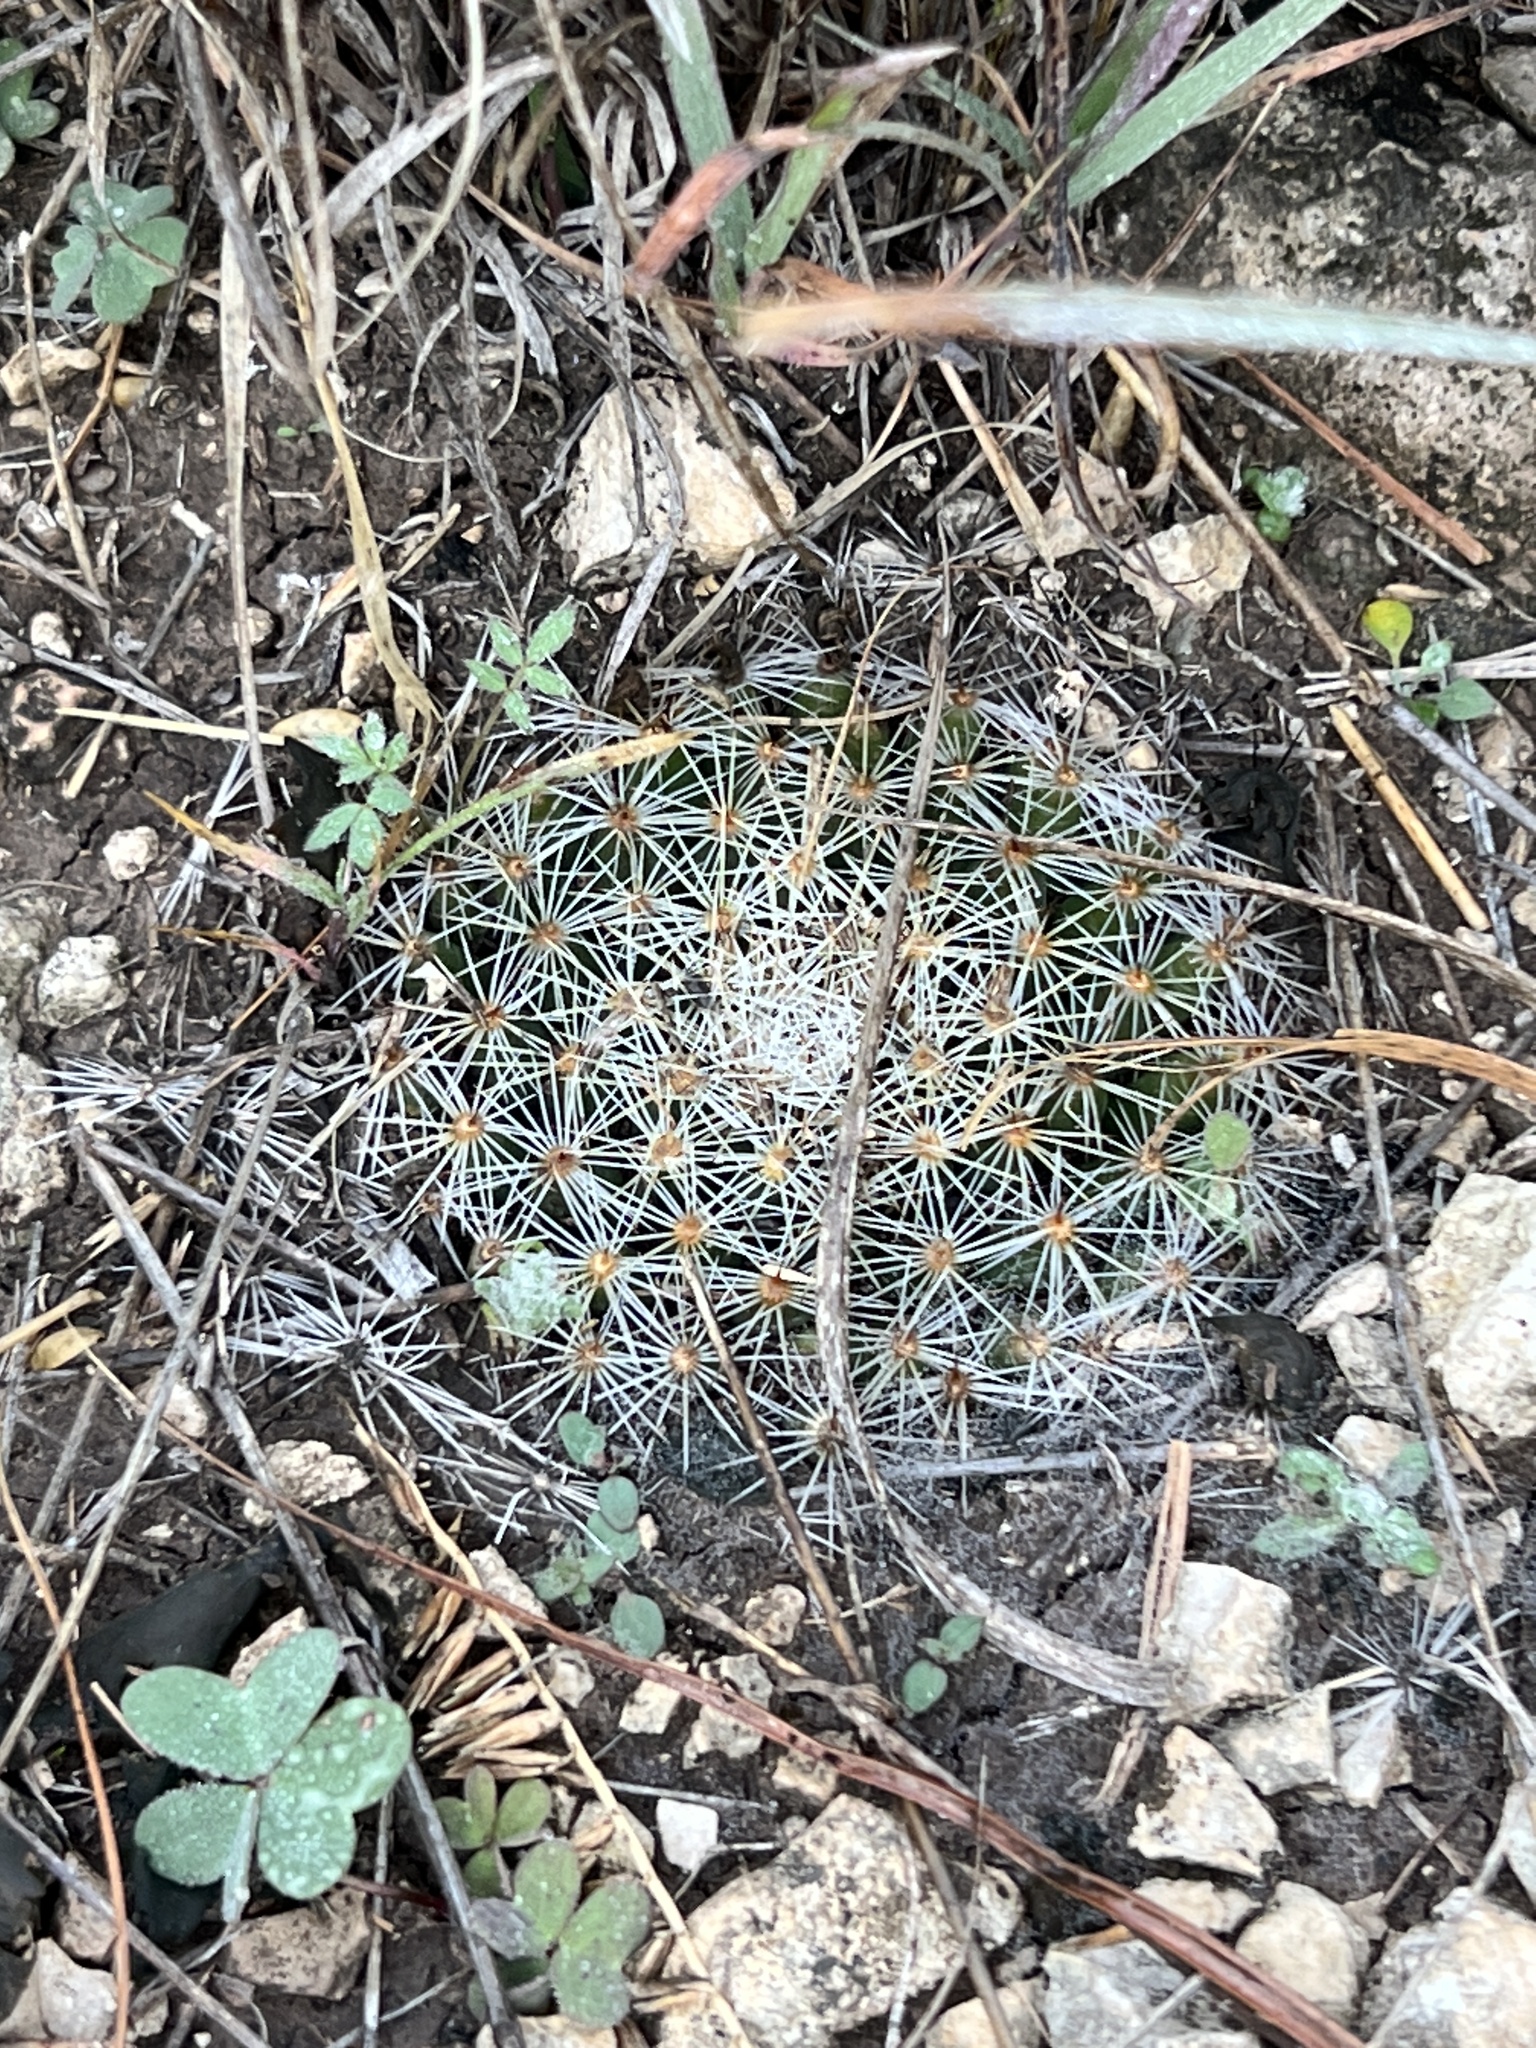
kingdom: Plantae
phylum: Tracheophyta
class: Magnoliopsida
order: Caryophyllales
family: Cactaceae
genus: Mammillaria
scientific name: Mammillaria heyderi
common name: Little nipple cactus
